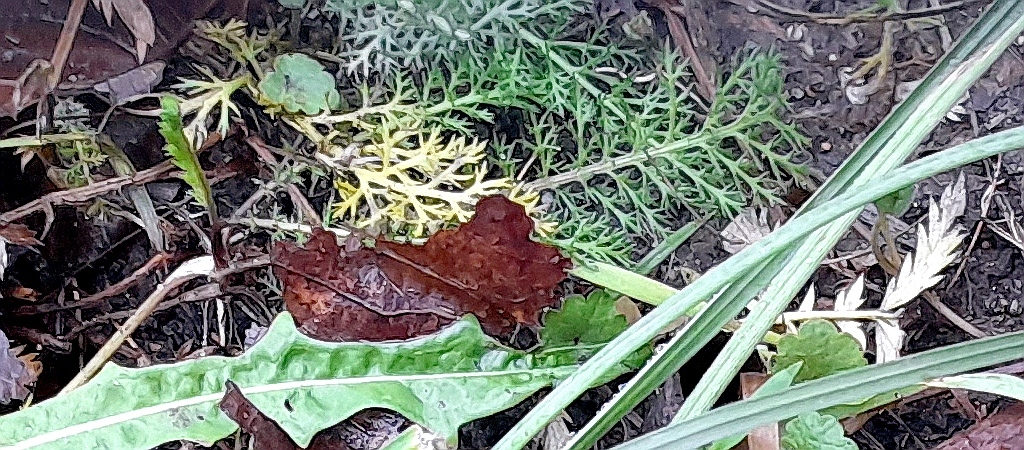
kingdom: Plantae
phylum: Tracheophyta
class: Magnoliopsida
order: Asterales
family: Asteraceae
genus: Achillea
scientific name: Achillea millefolium
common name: Yarrow
